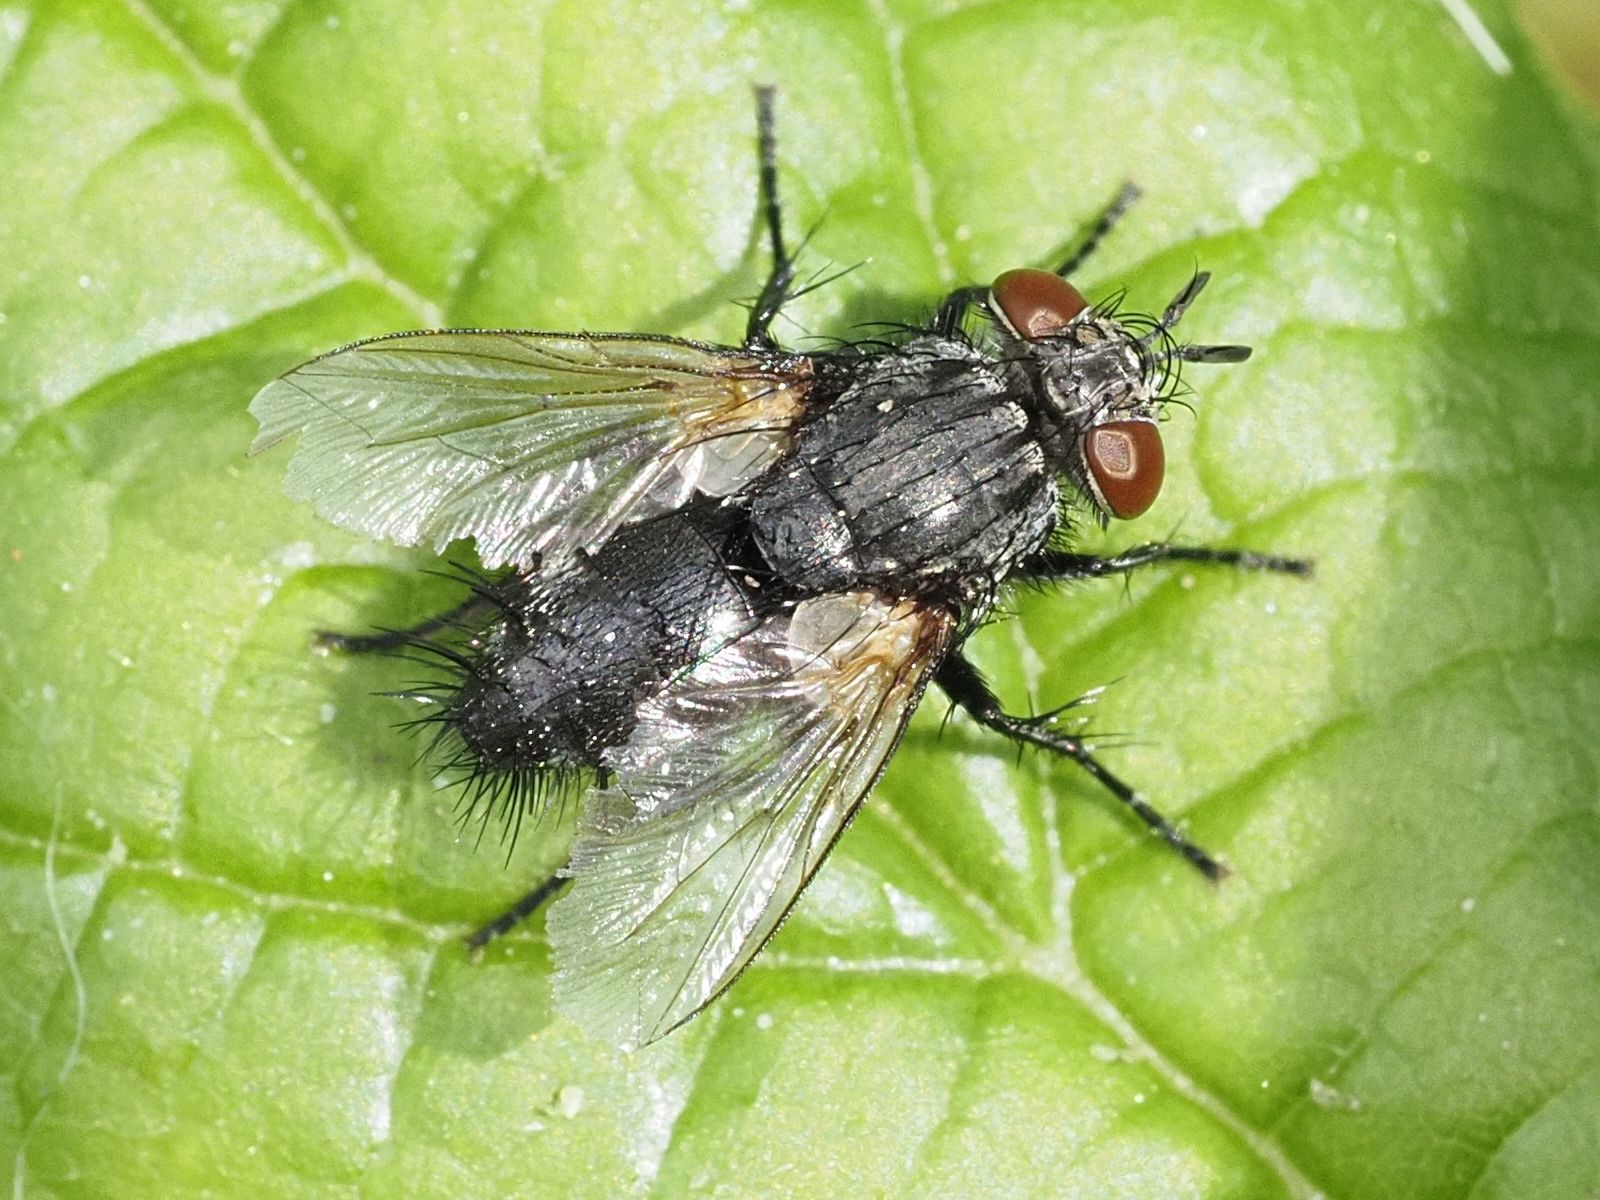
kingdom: Animalia
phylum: Arthropoda
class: Insecta
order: Diptera
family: Tachinidae
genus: Voria
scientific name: Voria ruralis
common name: Parasitic fly
